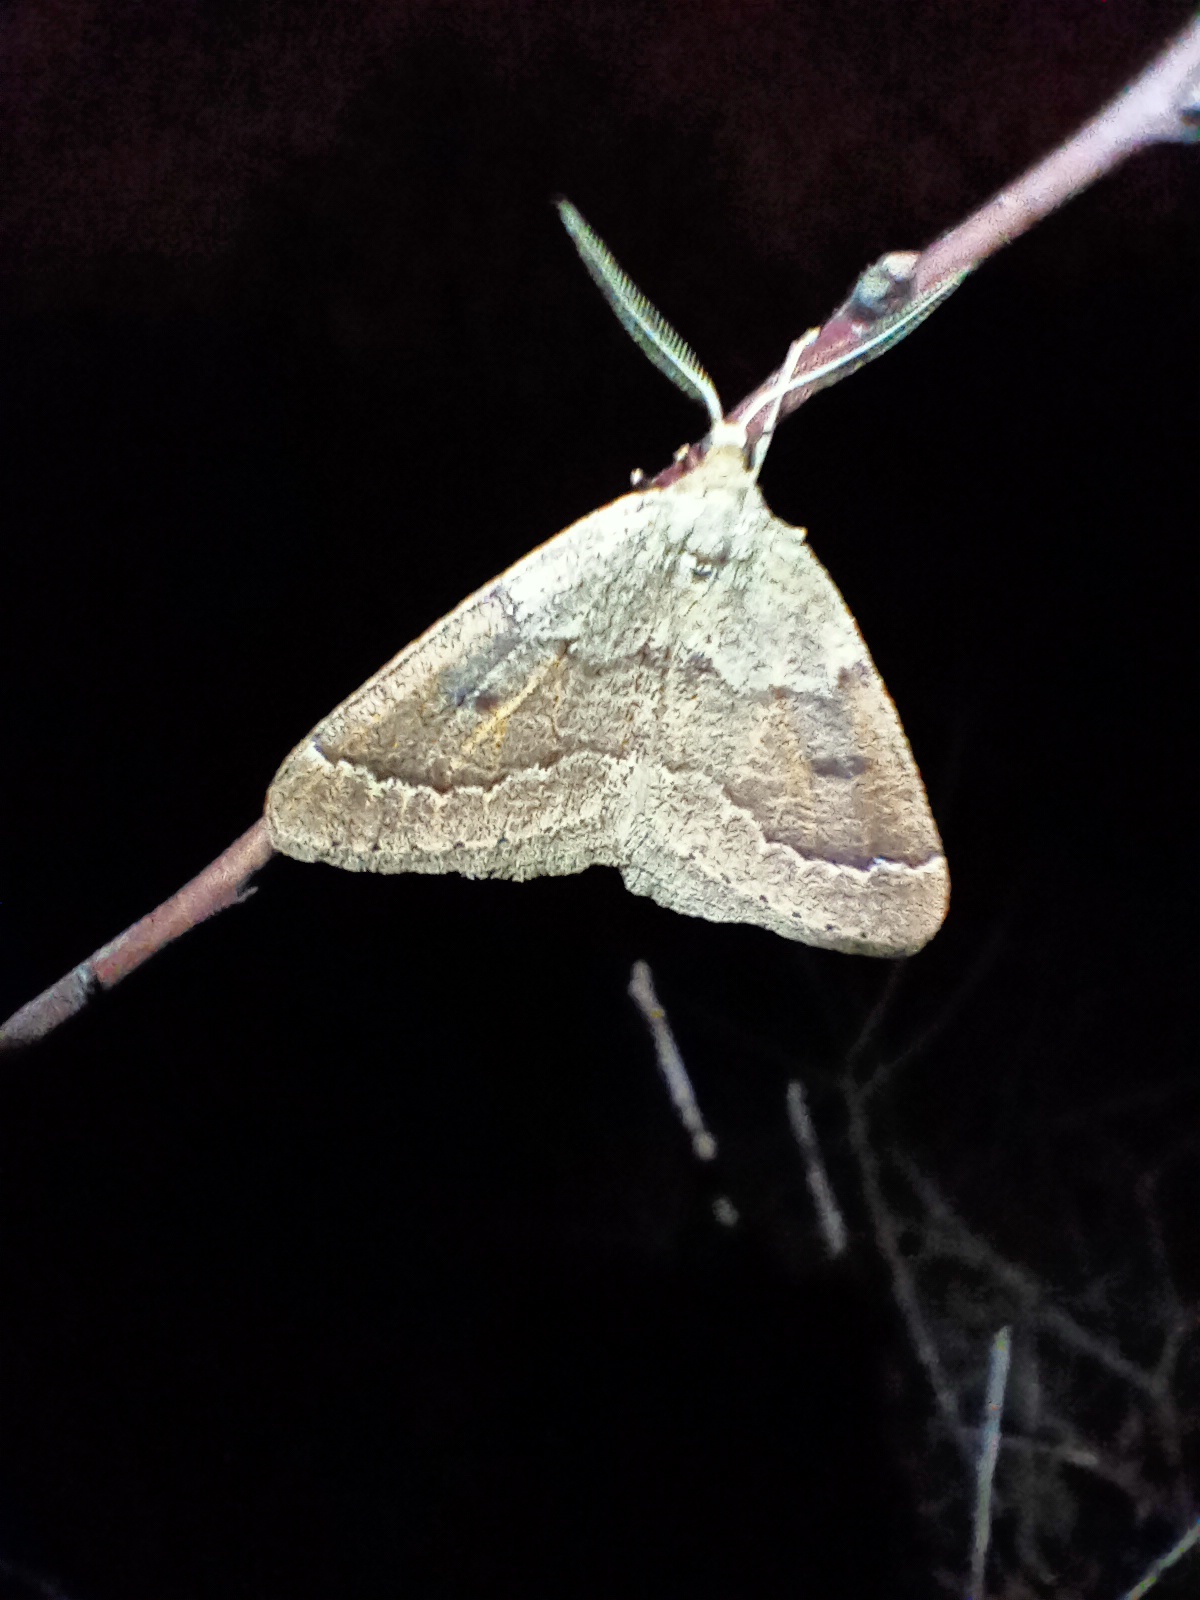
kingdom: Animalia
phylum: Arthropoda
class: Insecta
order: Lepidoptera
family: Geometridae
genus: Theria
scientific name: Theria rupicapraria
